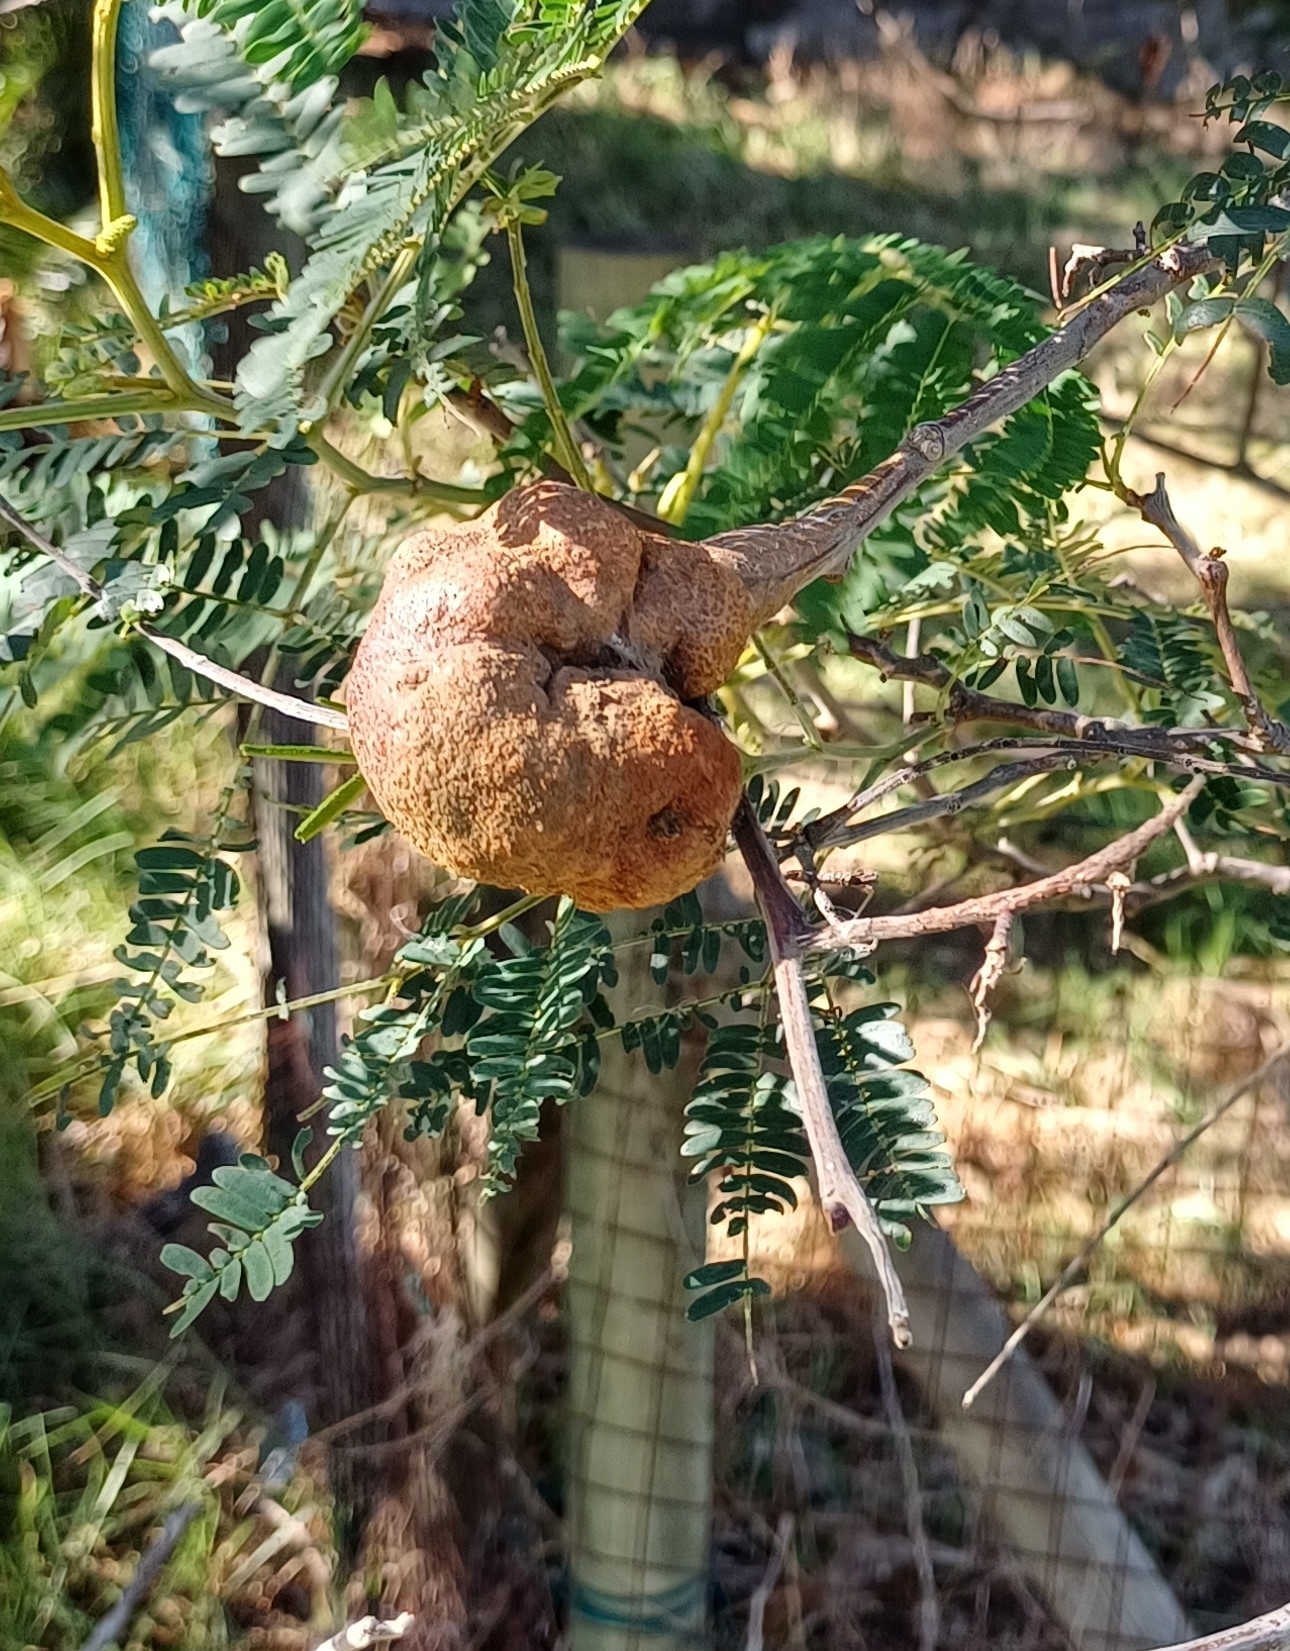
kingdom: Plantae
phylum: Tracheophyta
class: Magnoliopsida
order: Fabales
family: Fabaceae
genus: Paraserianthes
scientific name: Paraserianthes lophantha
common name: Plume albizia
